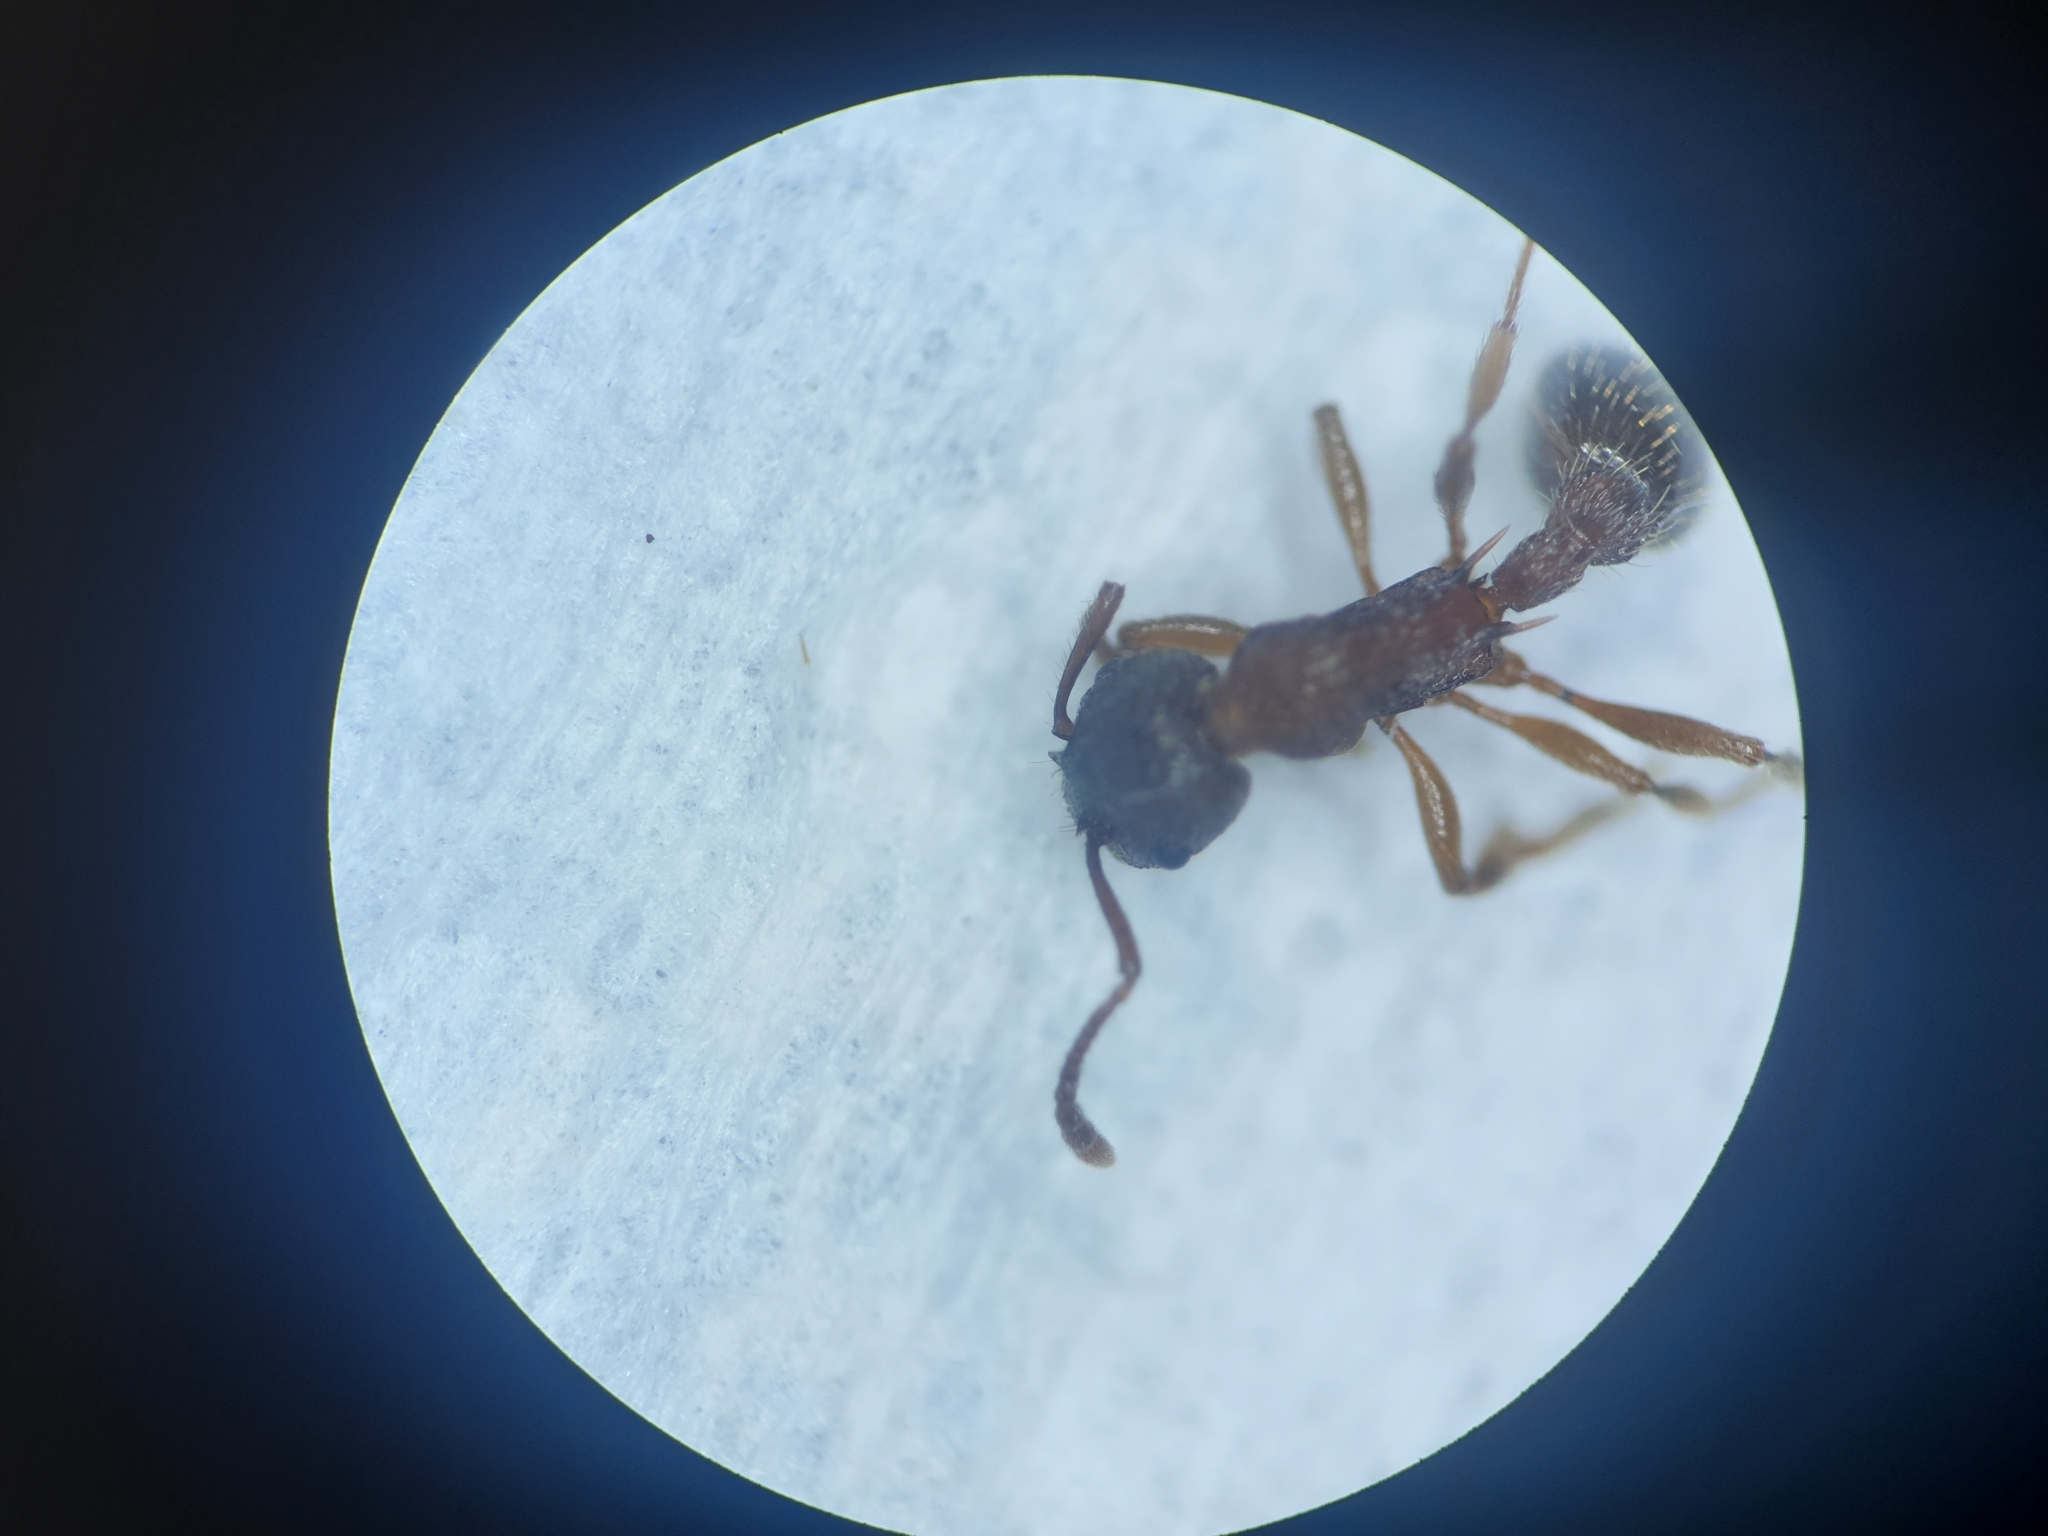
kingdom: Animalia
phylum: Arthropoda
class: Insecta
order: Hymenoptera
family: Formicidae
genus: Myrmica
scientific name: Myrmica latifrons
